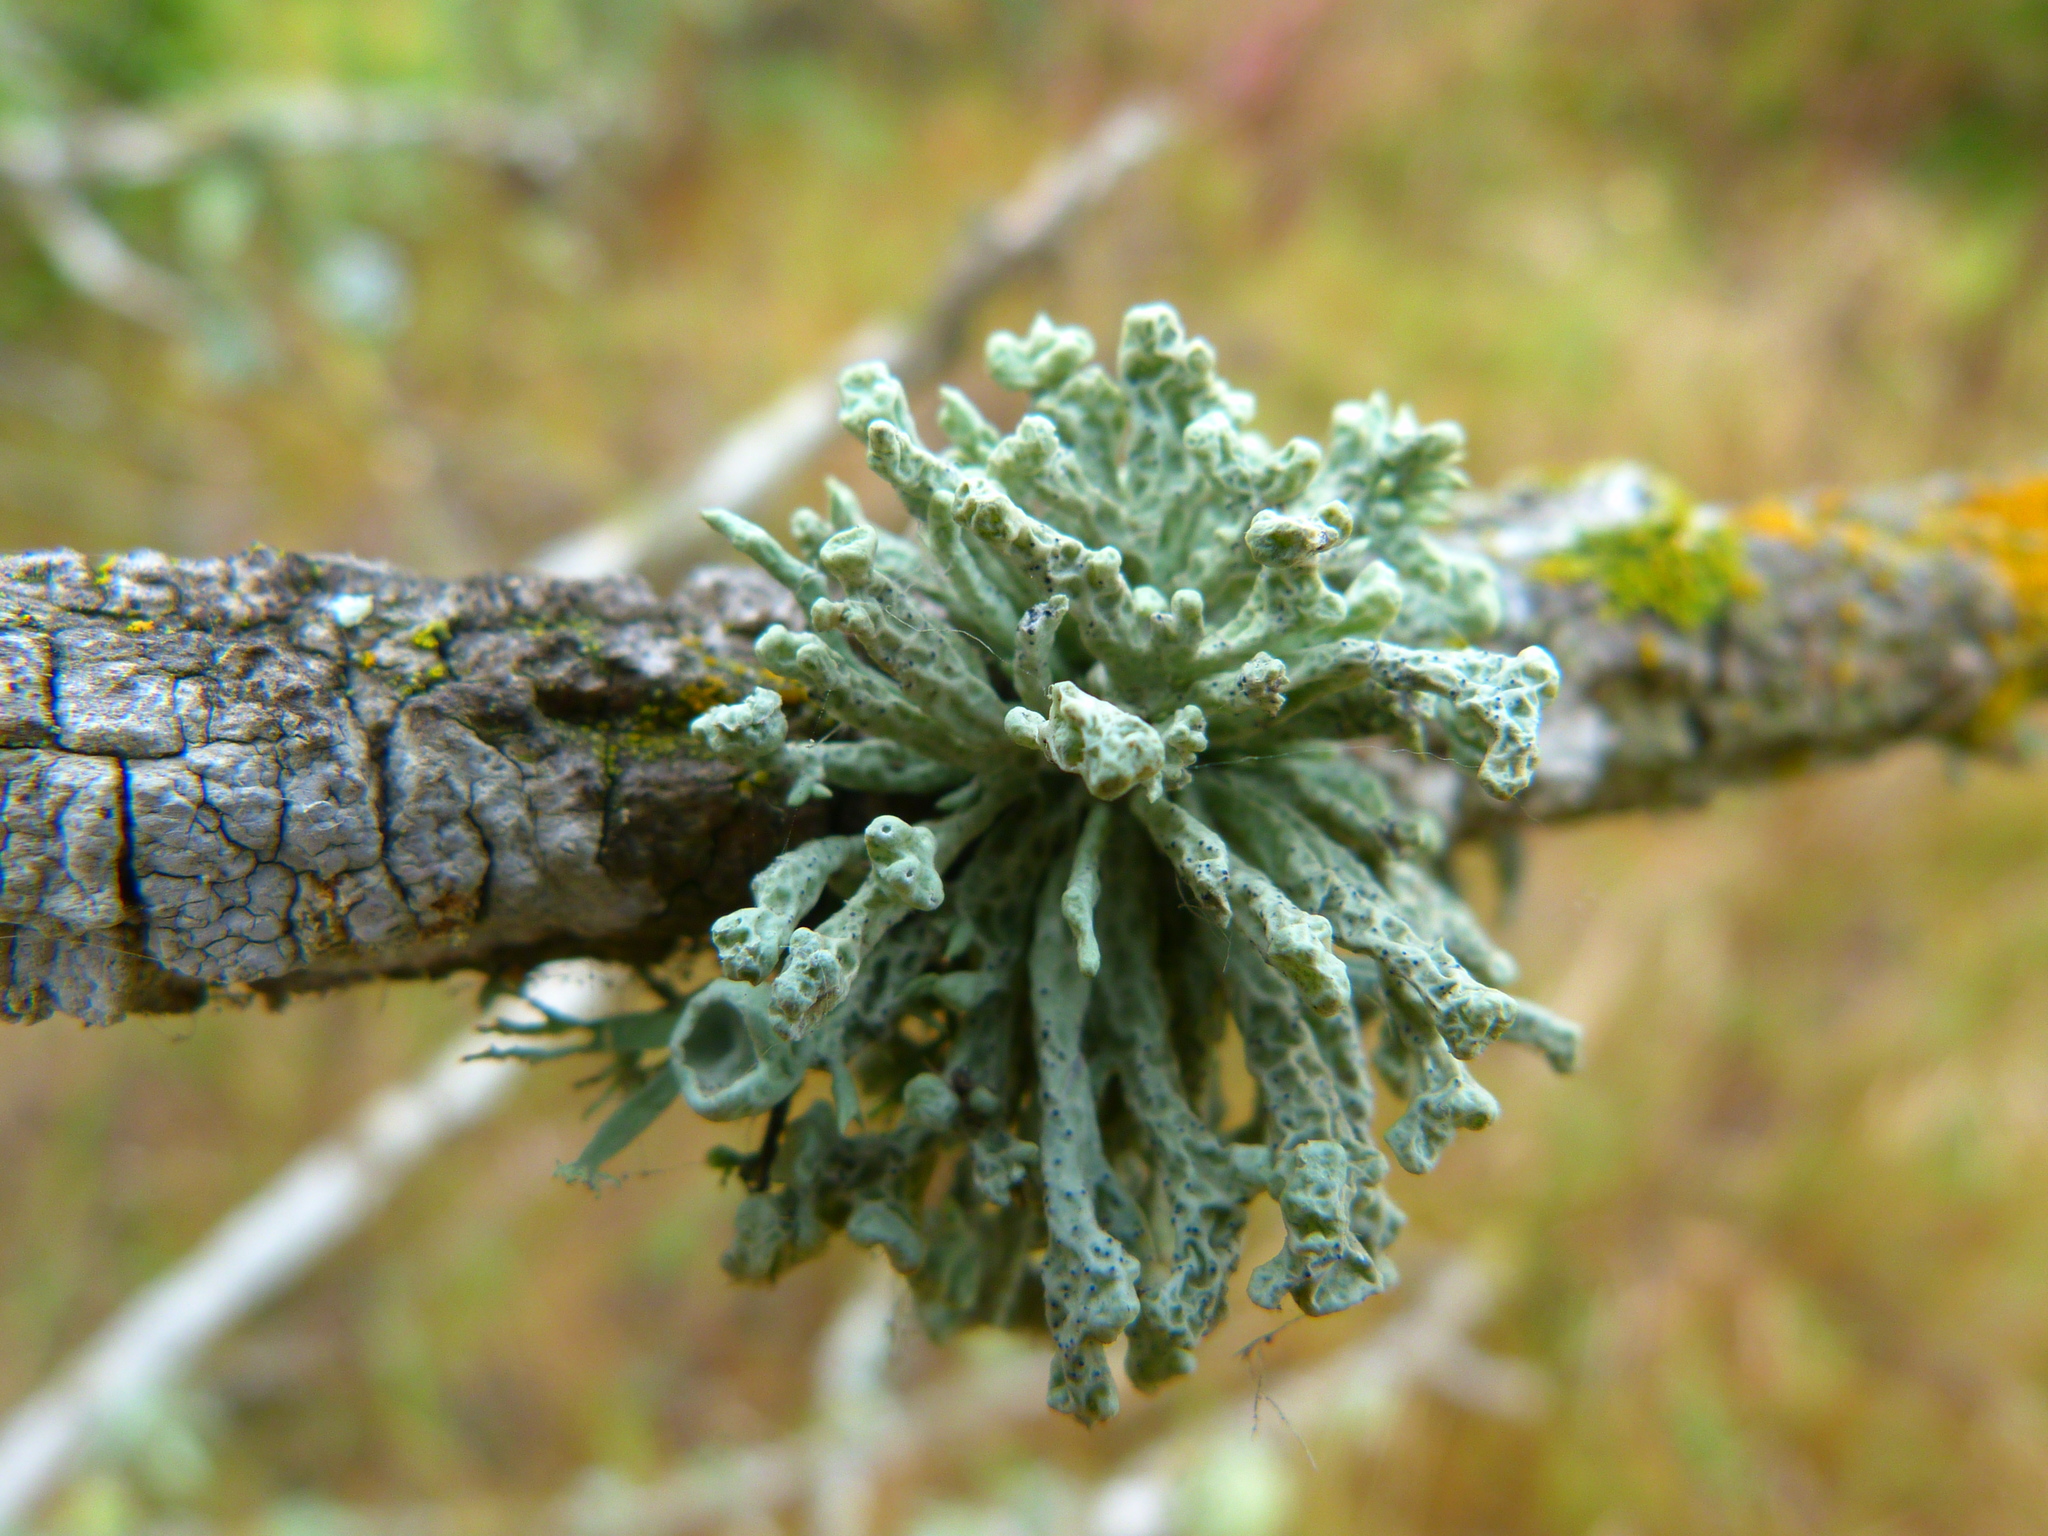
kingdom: Fungi
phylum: Ascomycota
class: Lecanoromycetes
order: Lecanorales
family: Ramalinaceae
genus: Niebla
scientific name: Niebla ceruchis
